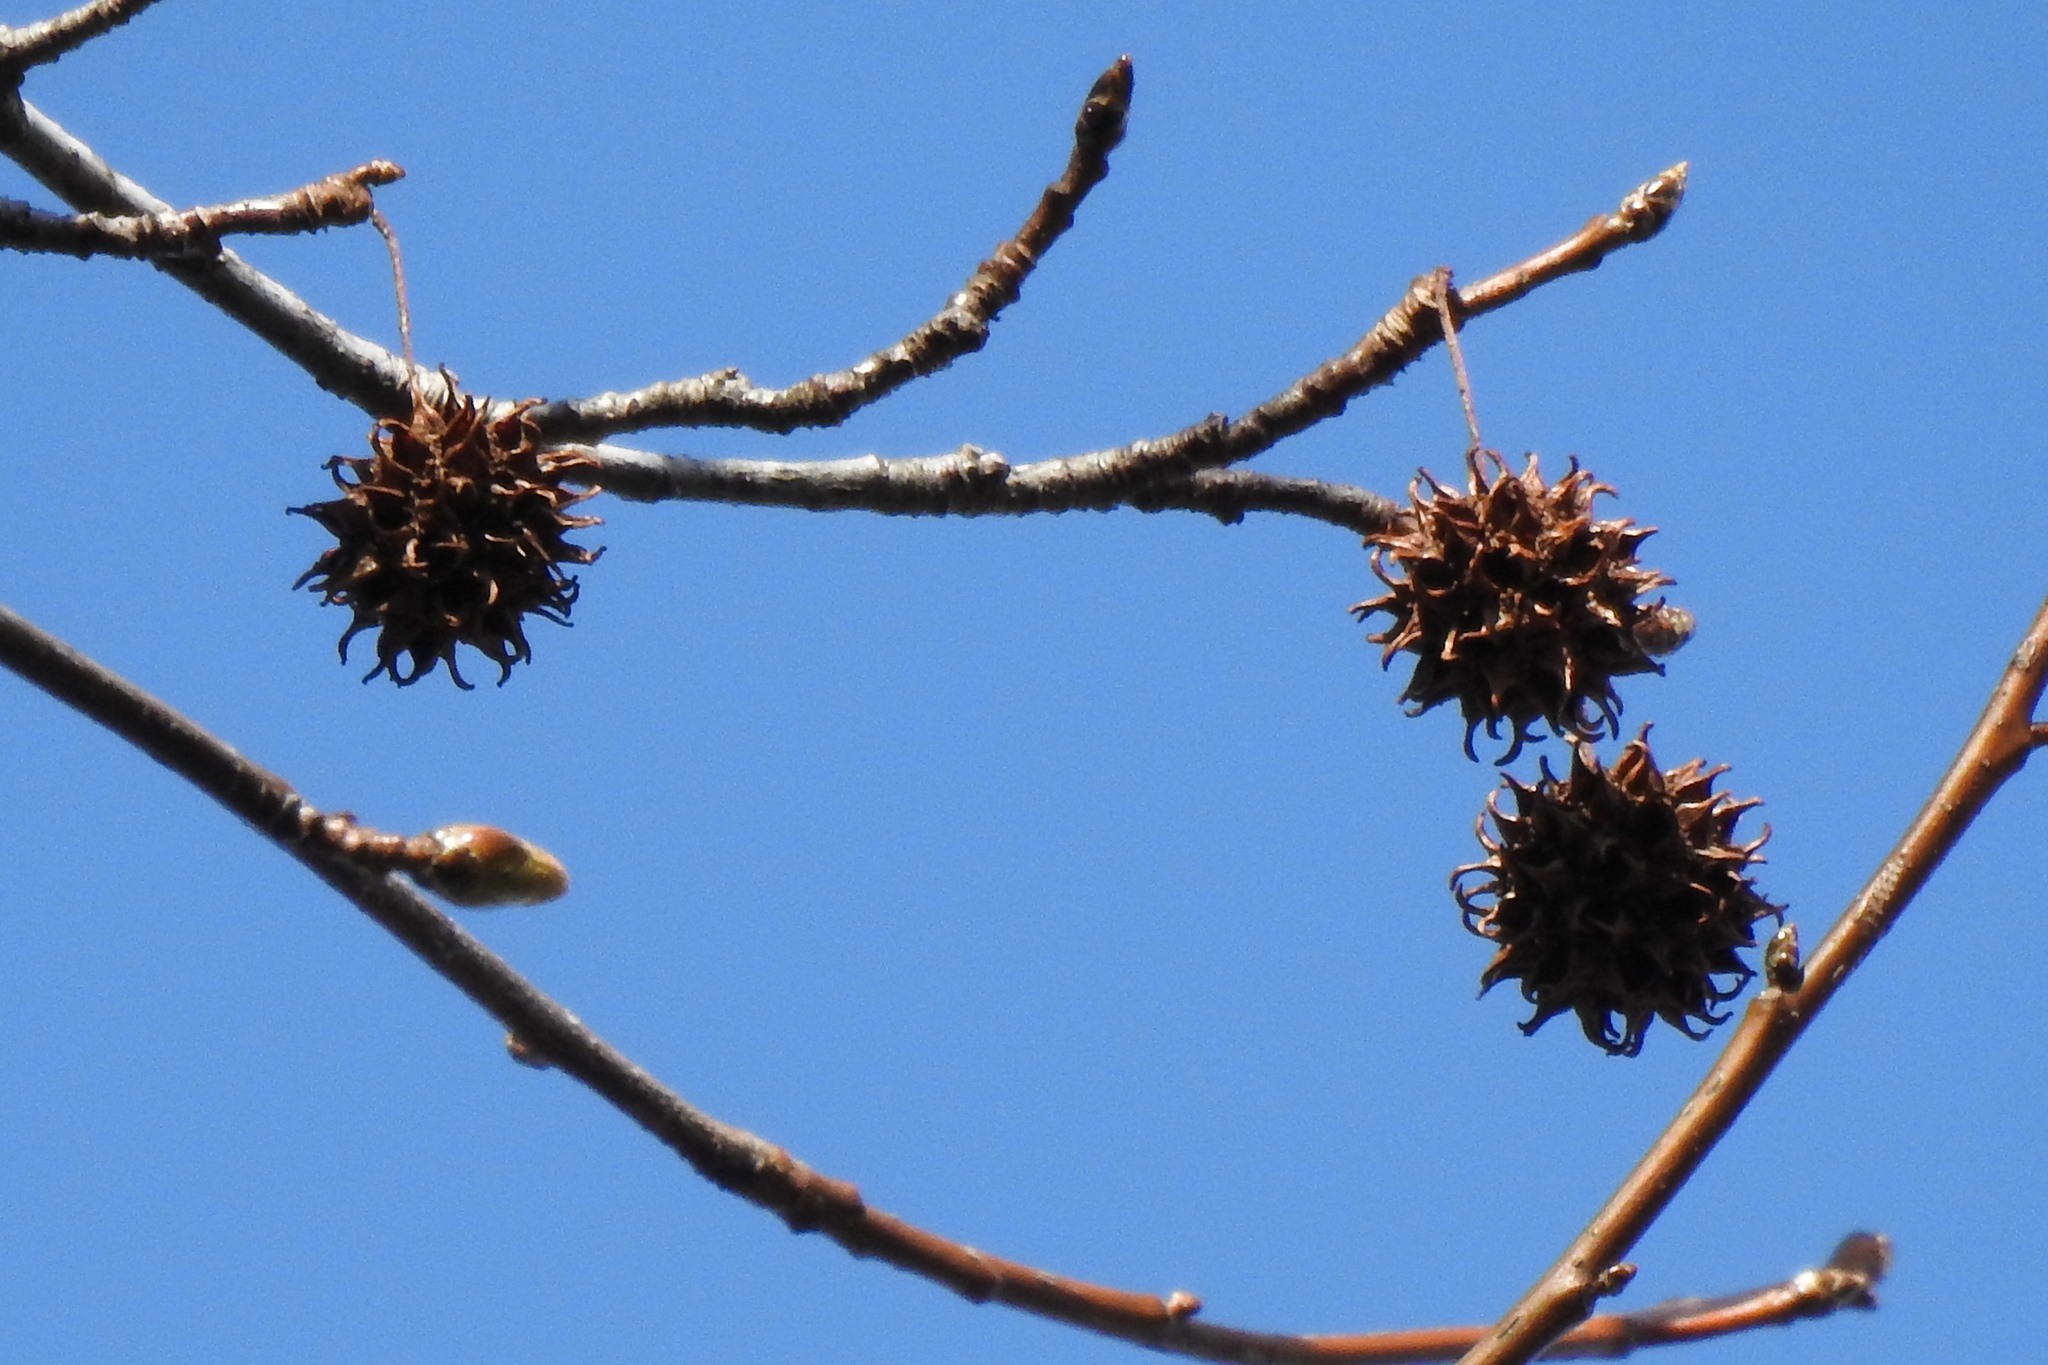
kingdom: Plantae
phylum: Tracheophyta
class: Magnoliopsida
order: Saxifragales
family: Altingiaceae
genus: Liquidambar
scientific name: Liquidambar styraciflua
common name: Sweet gum
